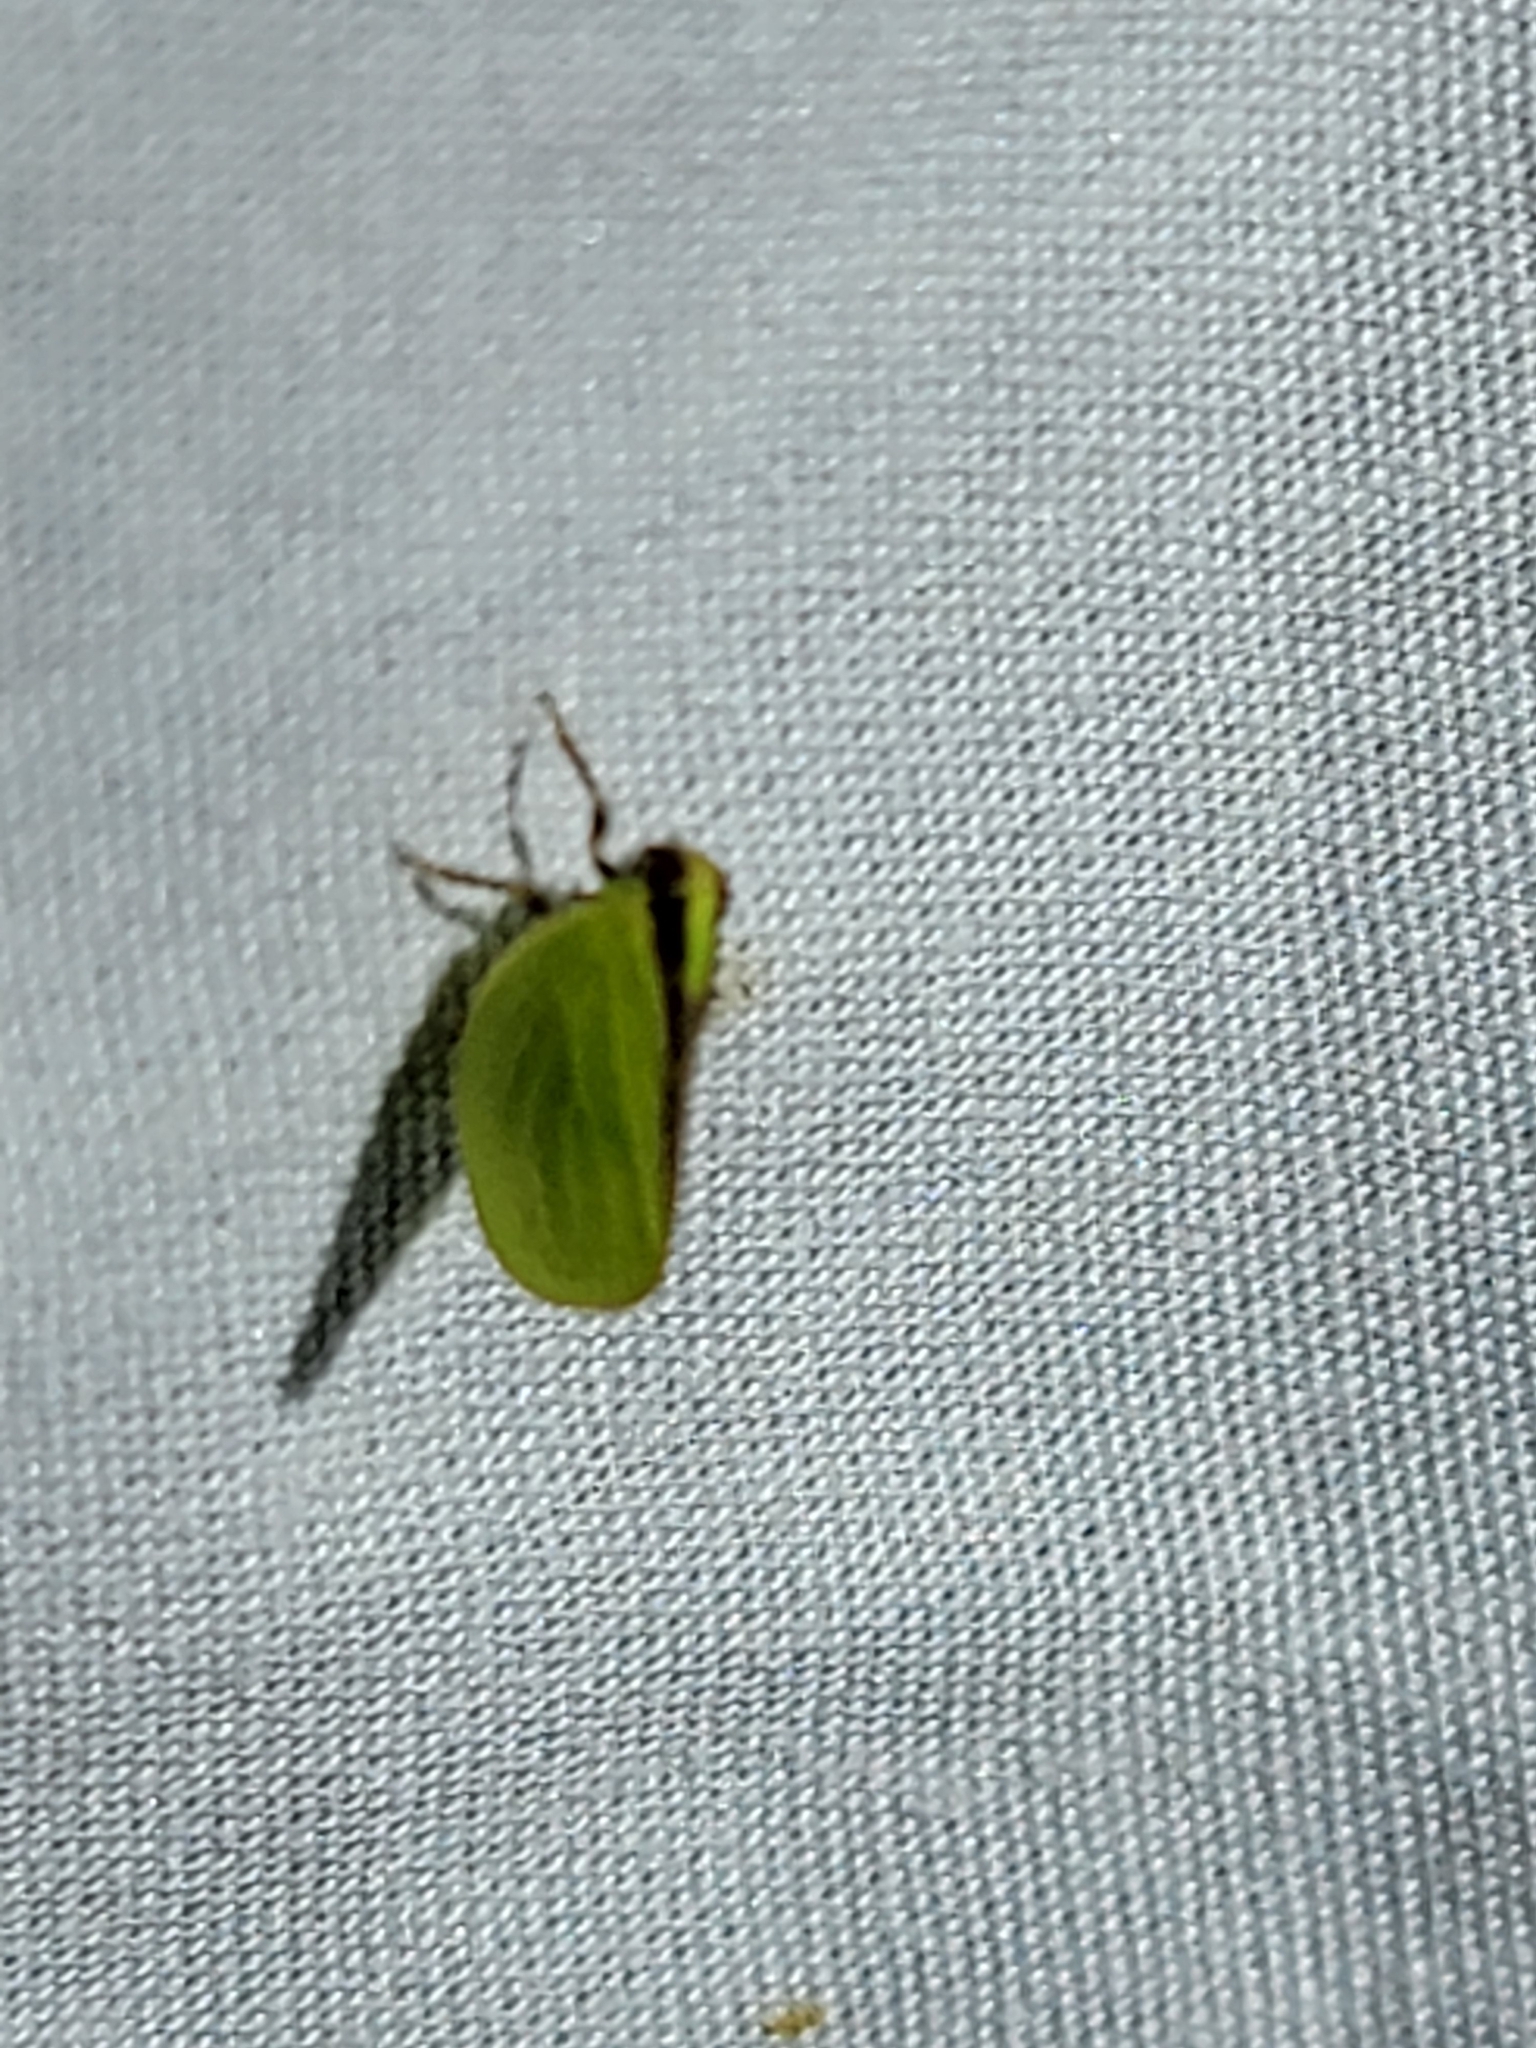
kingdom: Animalia
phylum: Arthropoda
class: Insecta
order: Hemiptera
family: Acanaloniidae
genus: Acanalonia
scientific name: Acanalonia bivittata
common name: Two-striped planthopper
